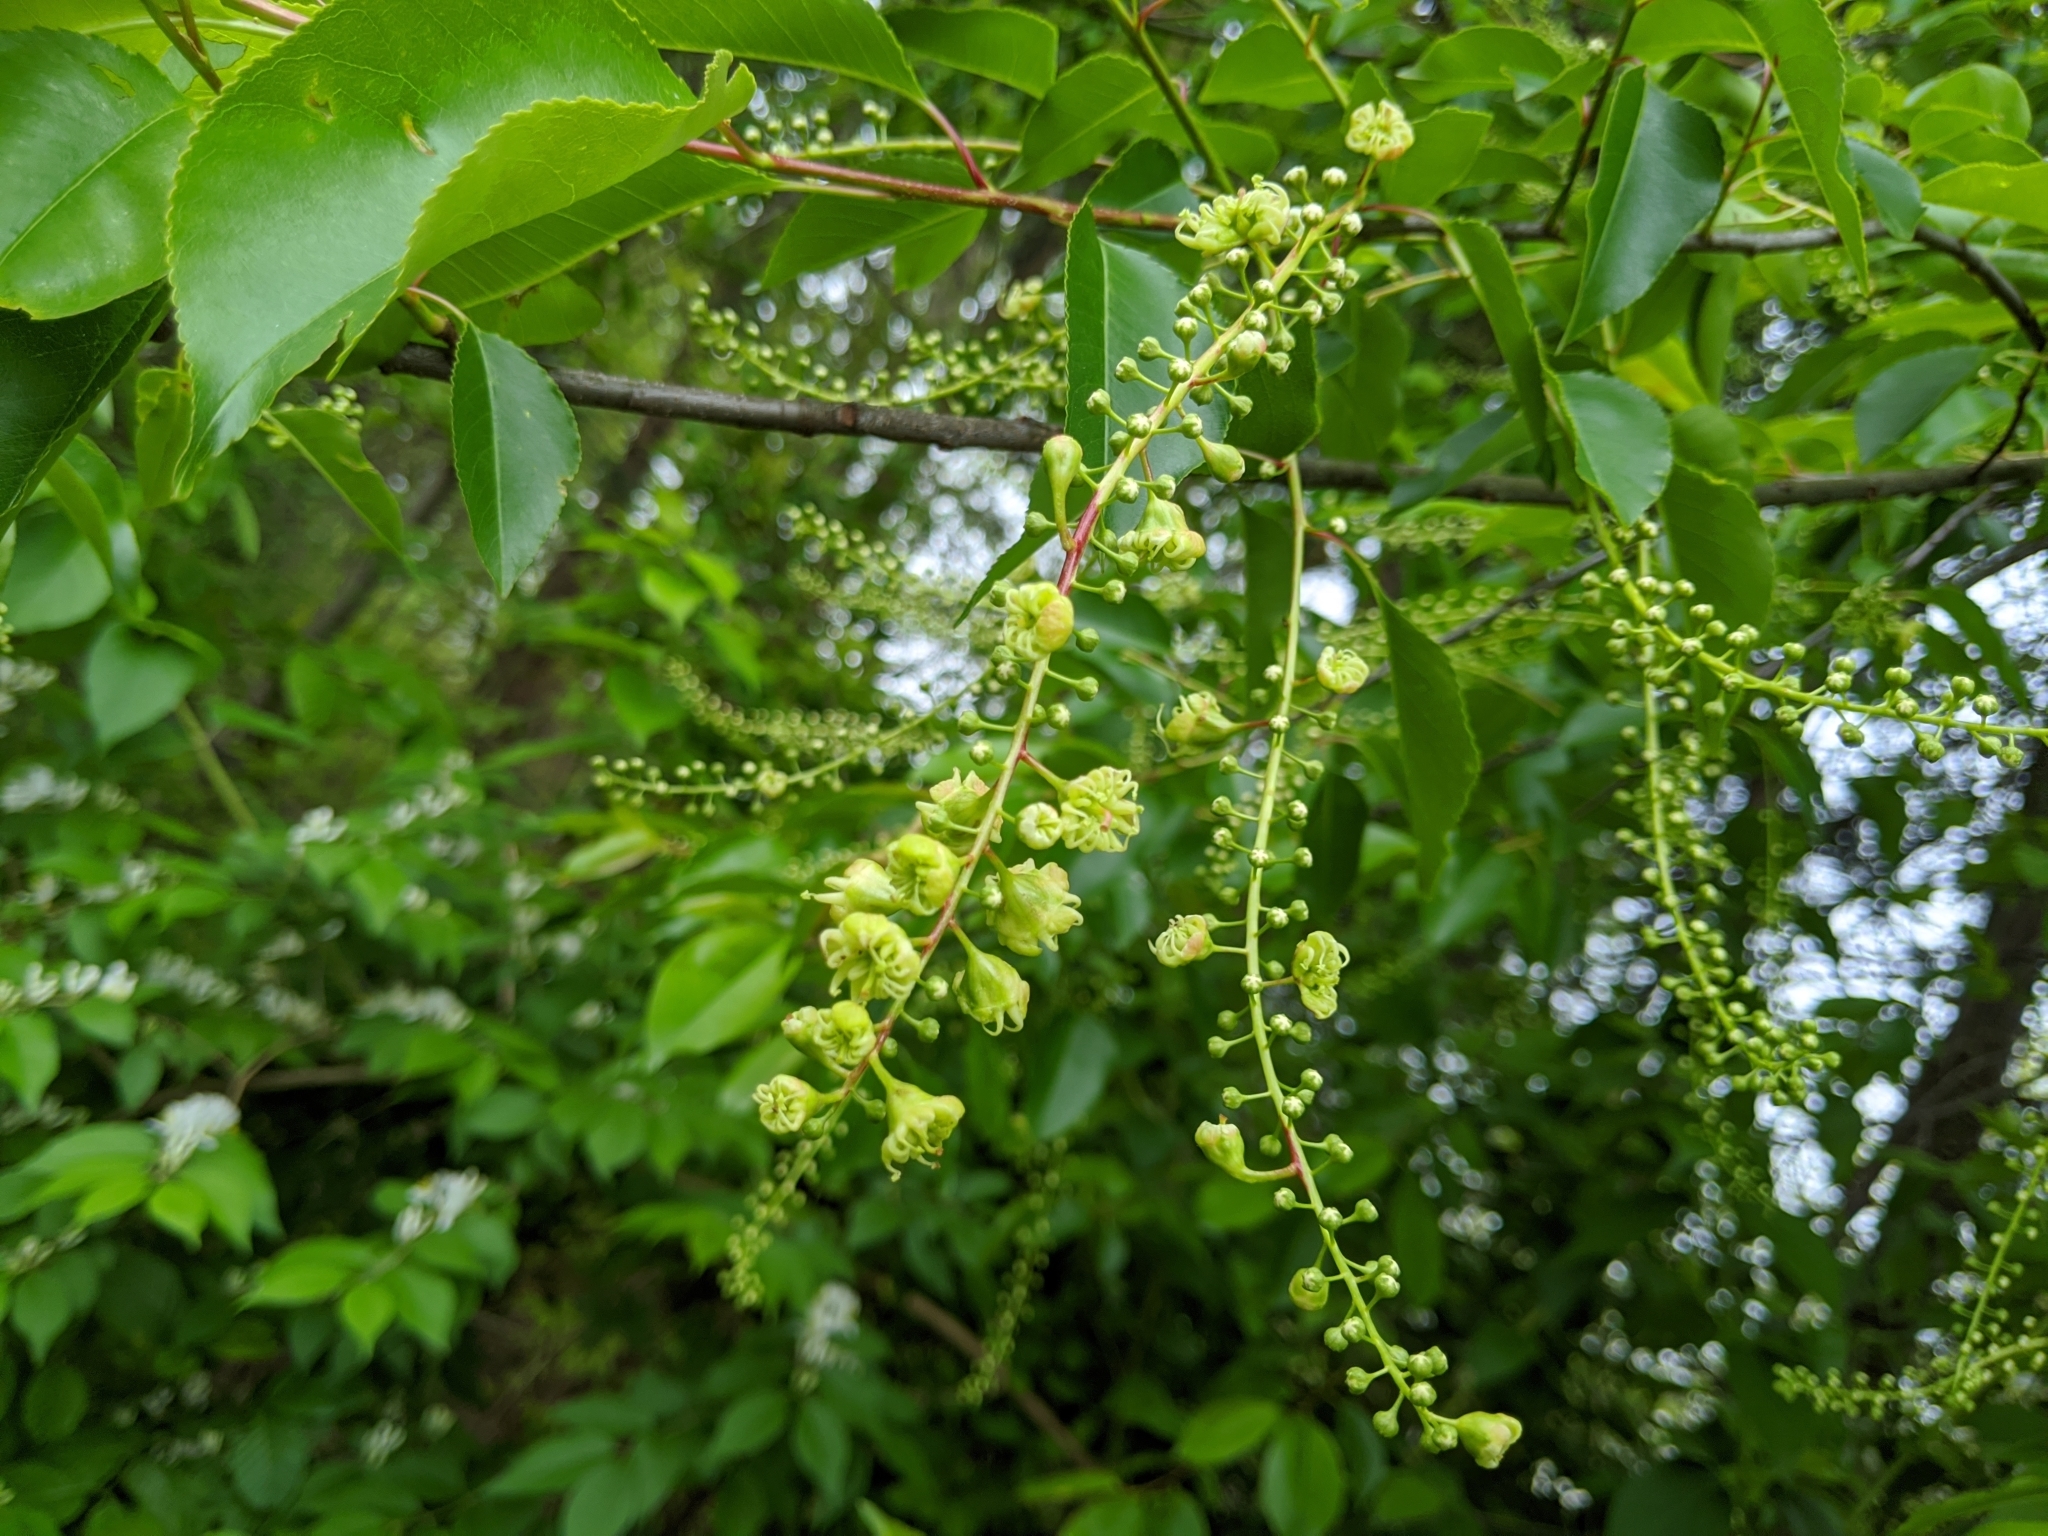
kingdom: Plantae
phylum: Tracheophyta
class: Magnoliopsida
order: Rosales
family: Rosaceae
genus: Prunus
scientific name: Prunus serotina
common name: Black cherry
